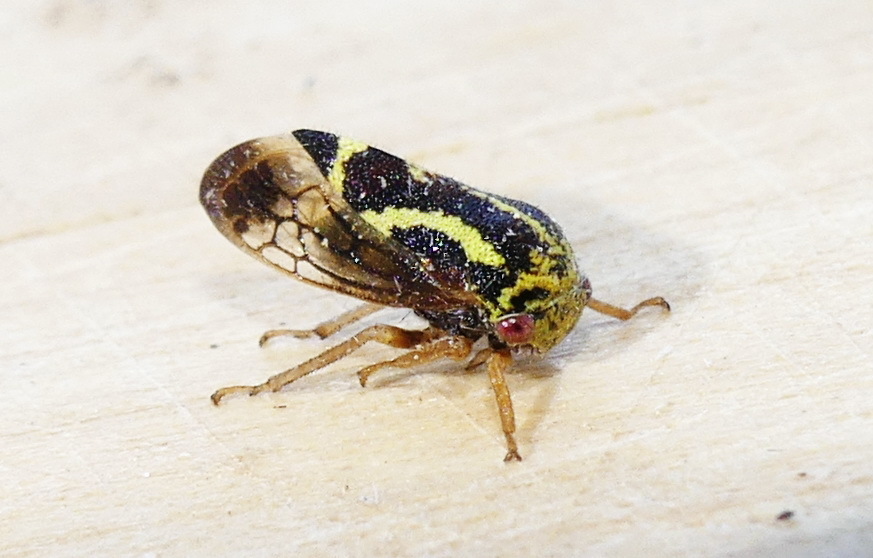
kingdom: Animalia
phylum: Arthropoda
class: Insecta
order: Hemiptera
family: Membracidae
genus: Ophiderma
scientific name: Ophiderma flava
